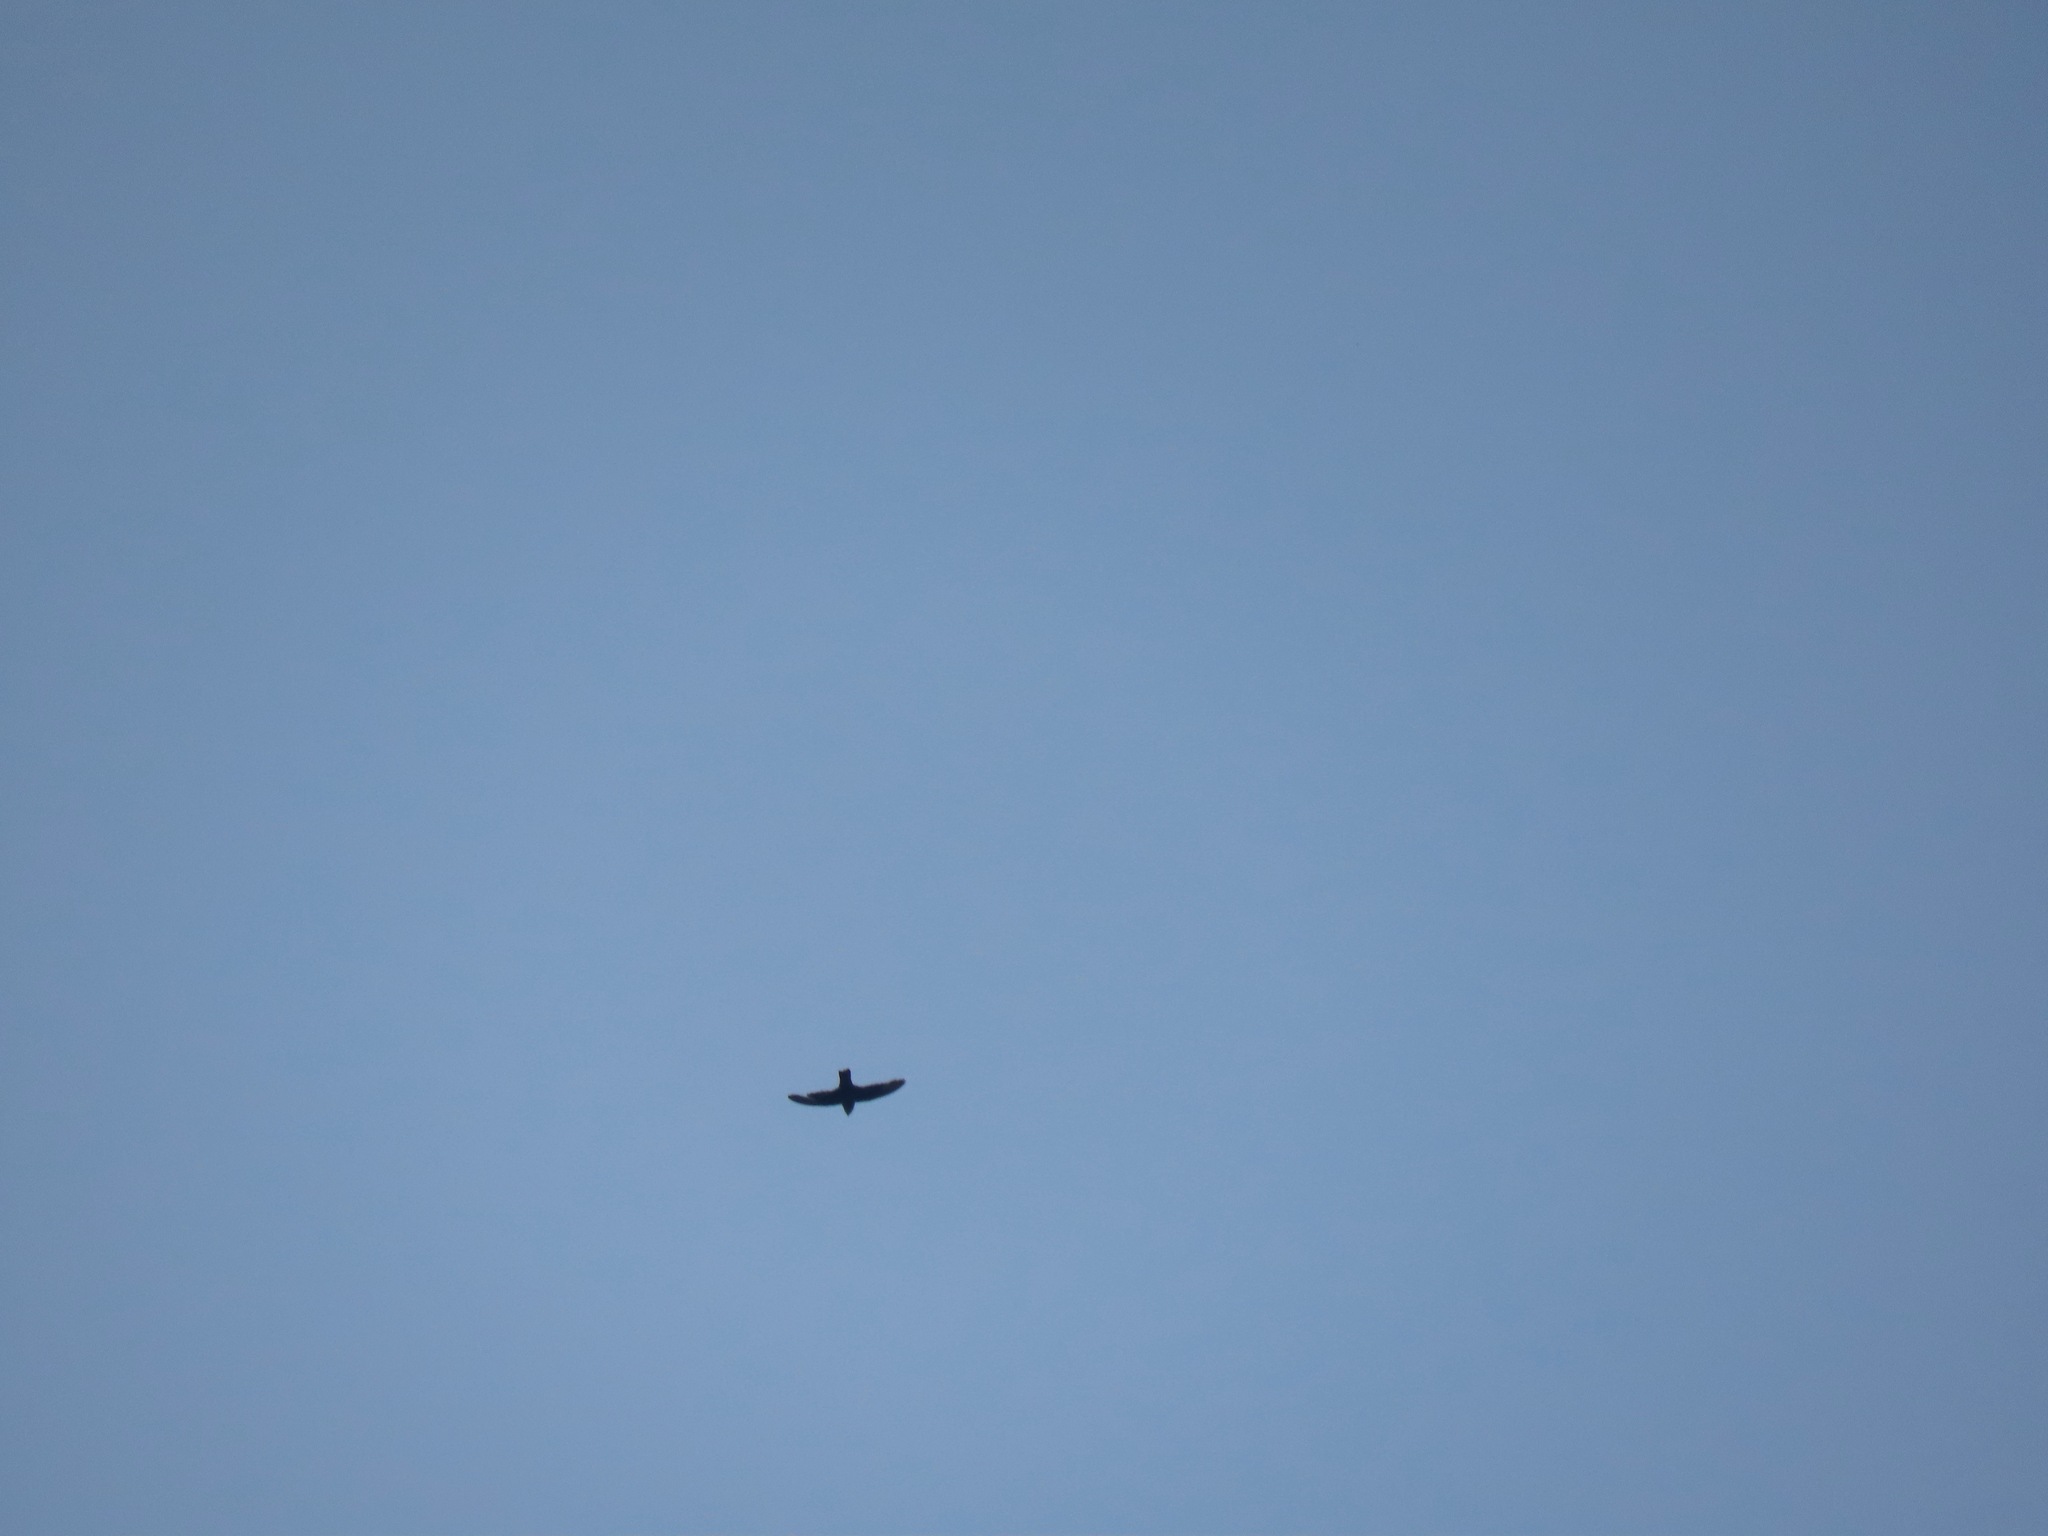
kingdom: Animalia
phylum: Chordata
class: Aves
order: Apodiformes
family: Apodidae
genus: Chaetura
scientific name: Chaetura vauxi
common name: Vaux's swift
